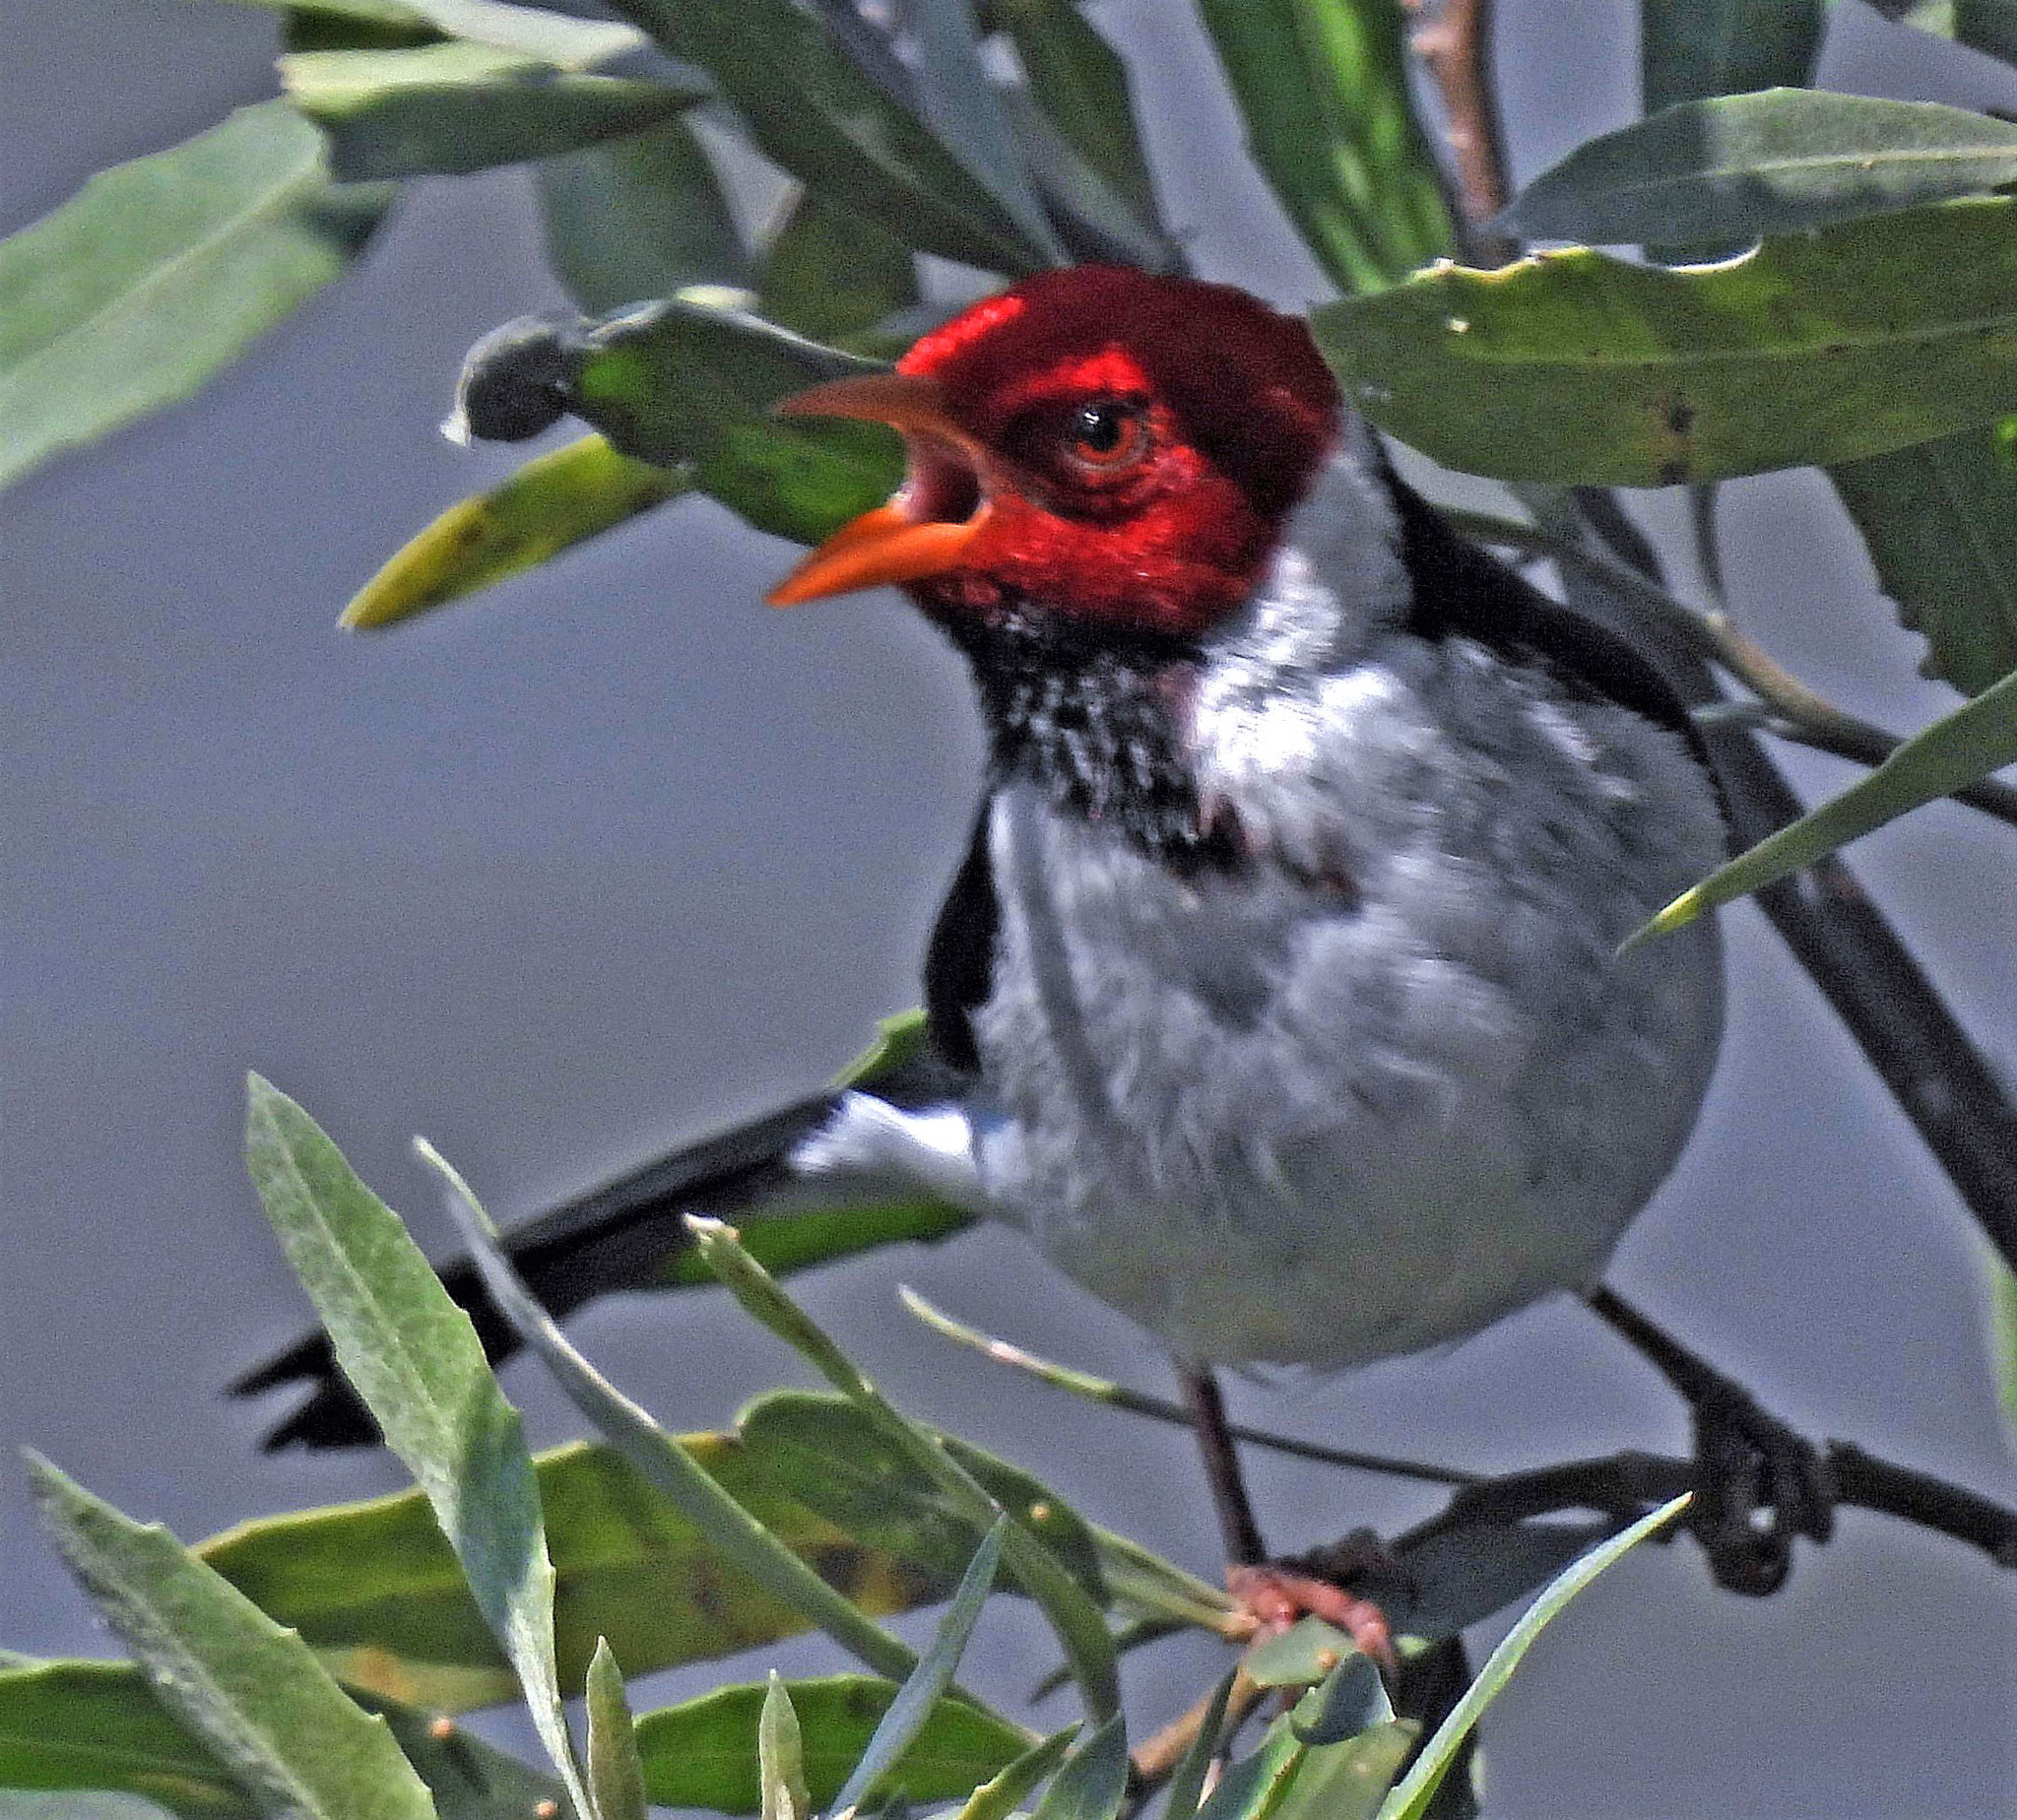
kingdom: Animalia
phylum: Chordata
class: Aves
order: Passeriformes
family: Thraupidae
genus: Paroaria
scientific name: Paroaria capitata
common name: Yellow-billed cardinal
